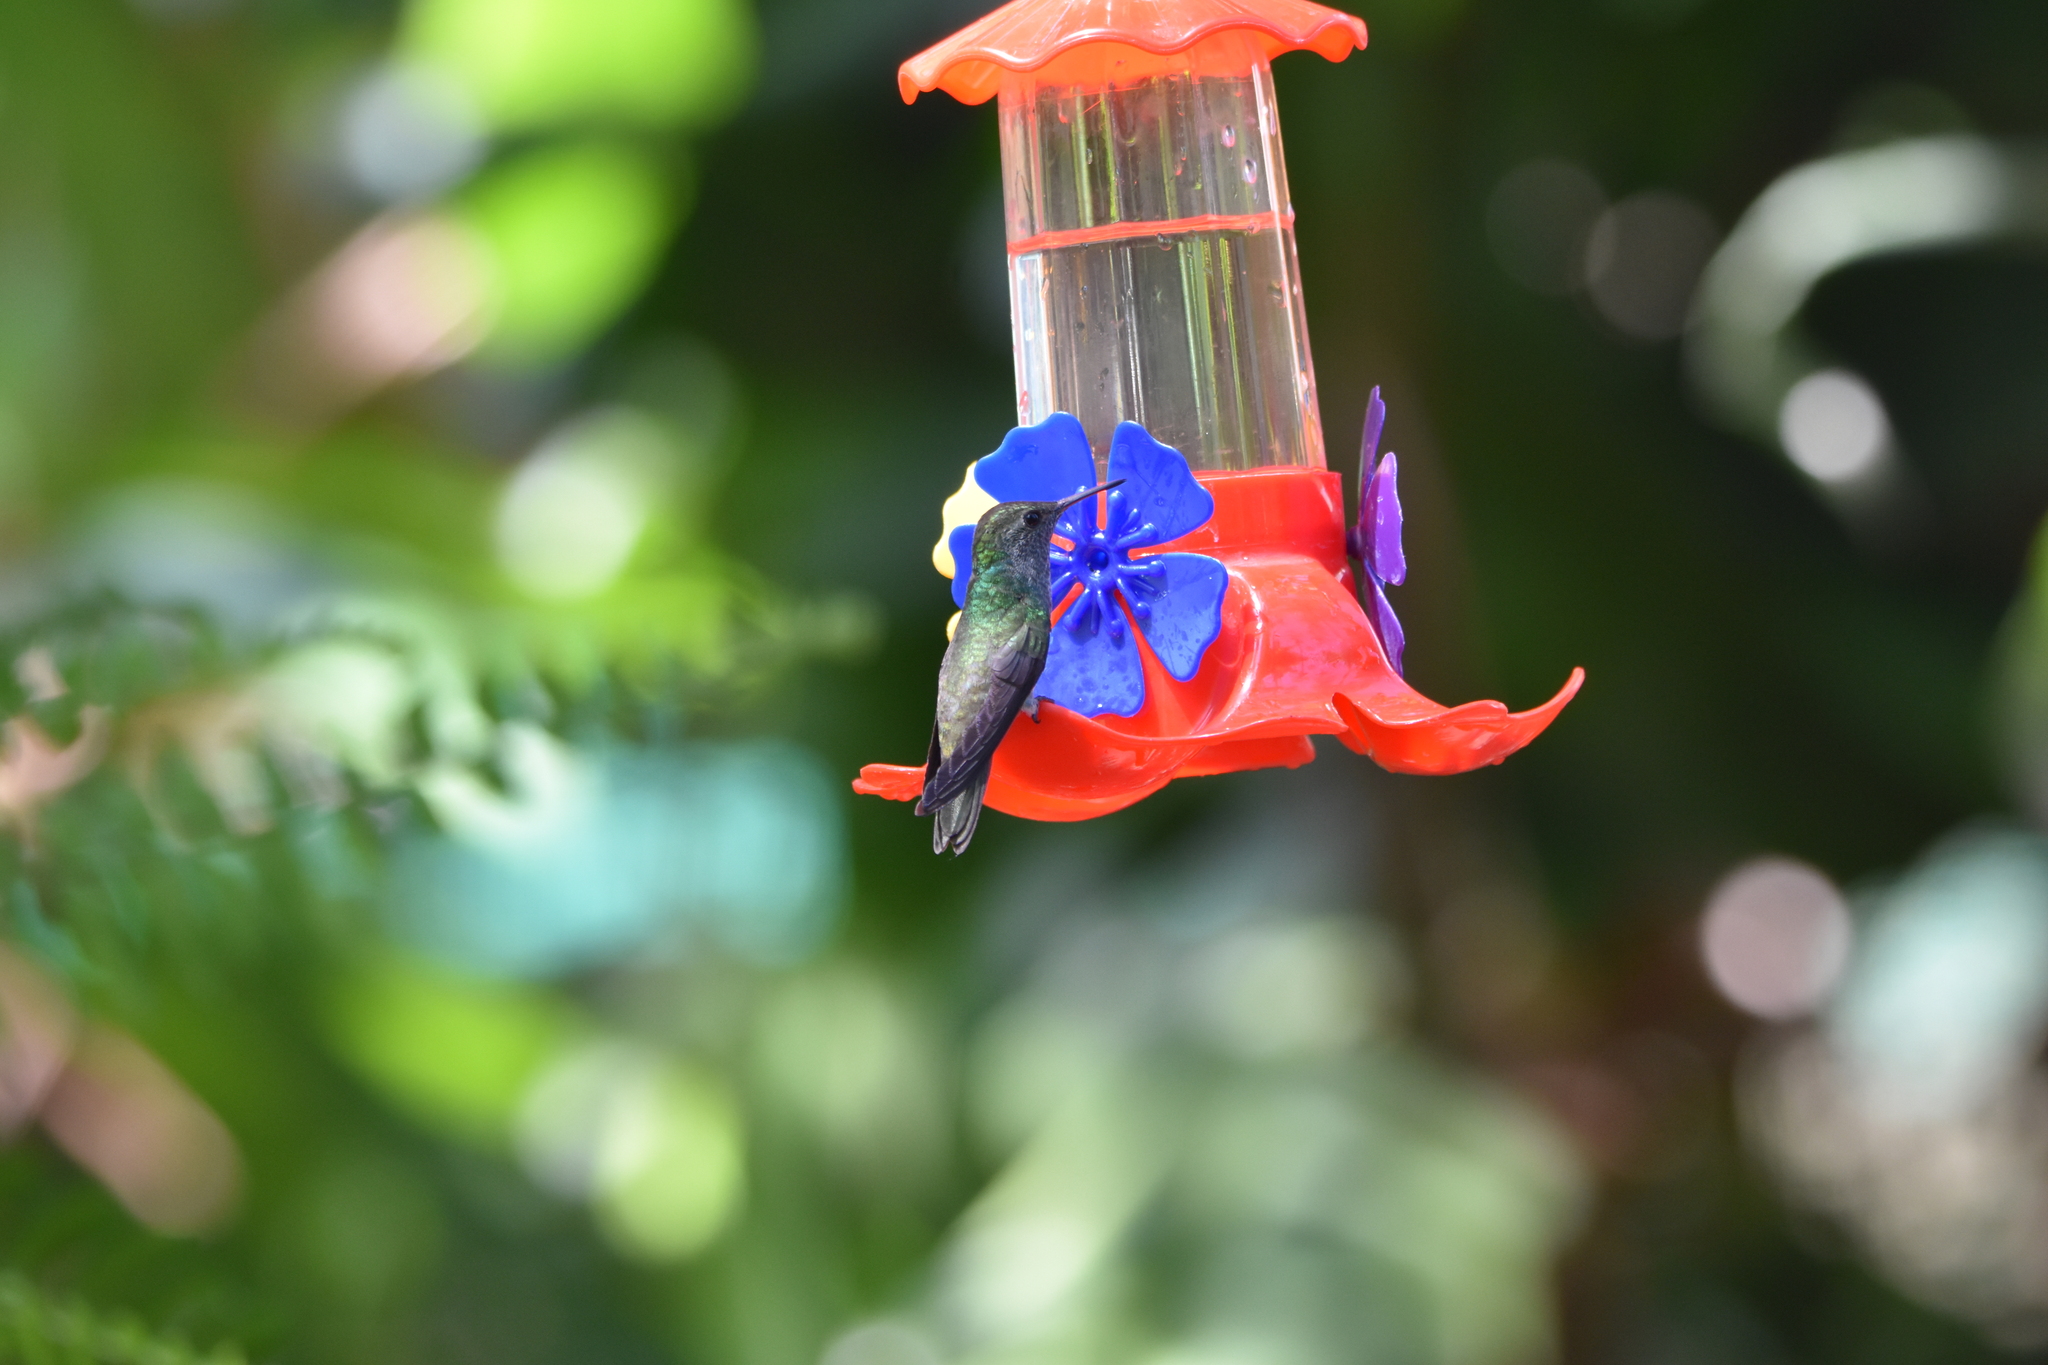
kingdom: Animalia
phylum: Chordata
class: Aves
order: Apodiformes
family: Trochilidae
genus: Chrysuronia
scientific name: Chrysuronia versicolor
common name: Versicolored emerald
